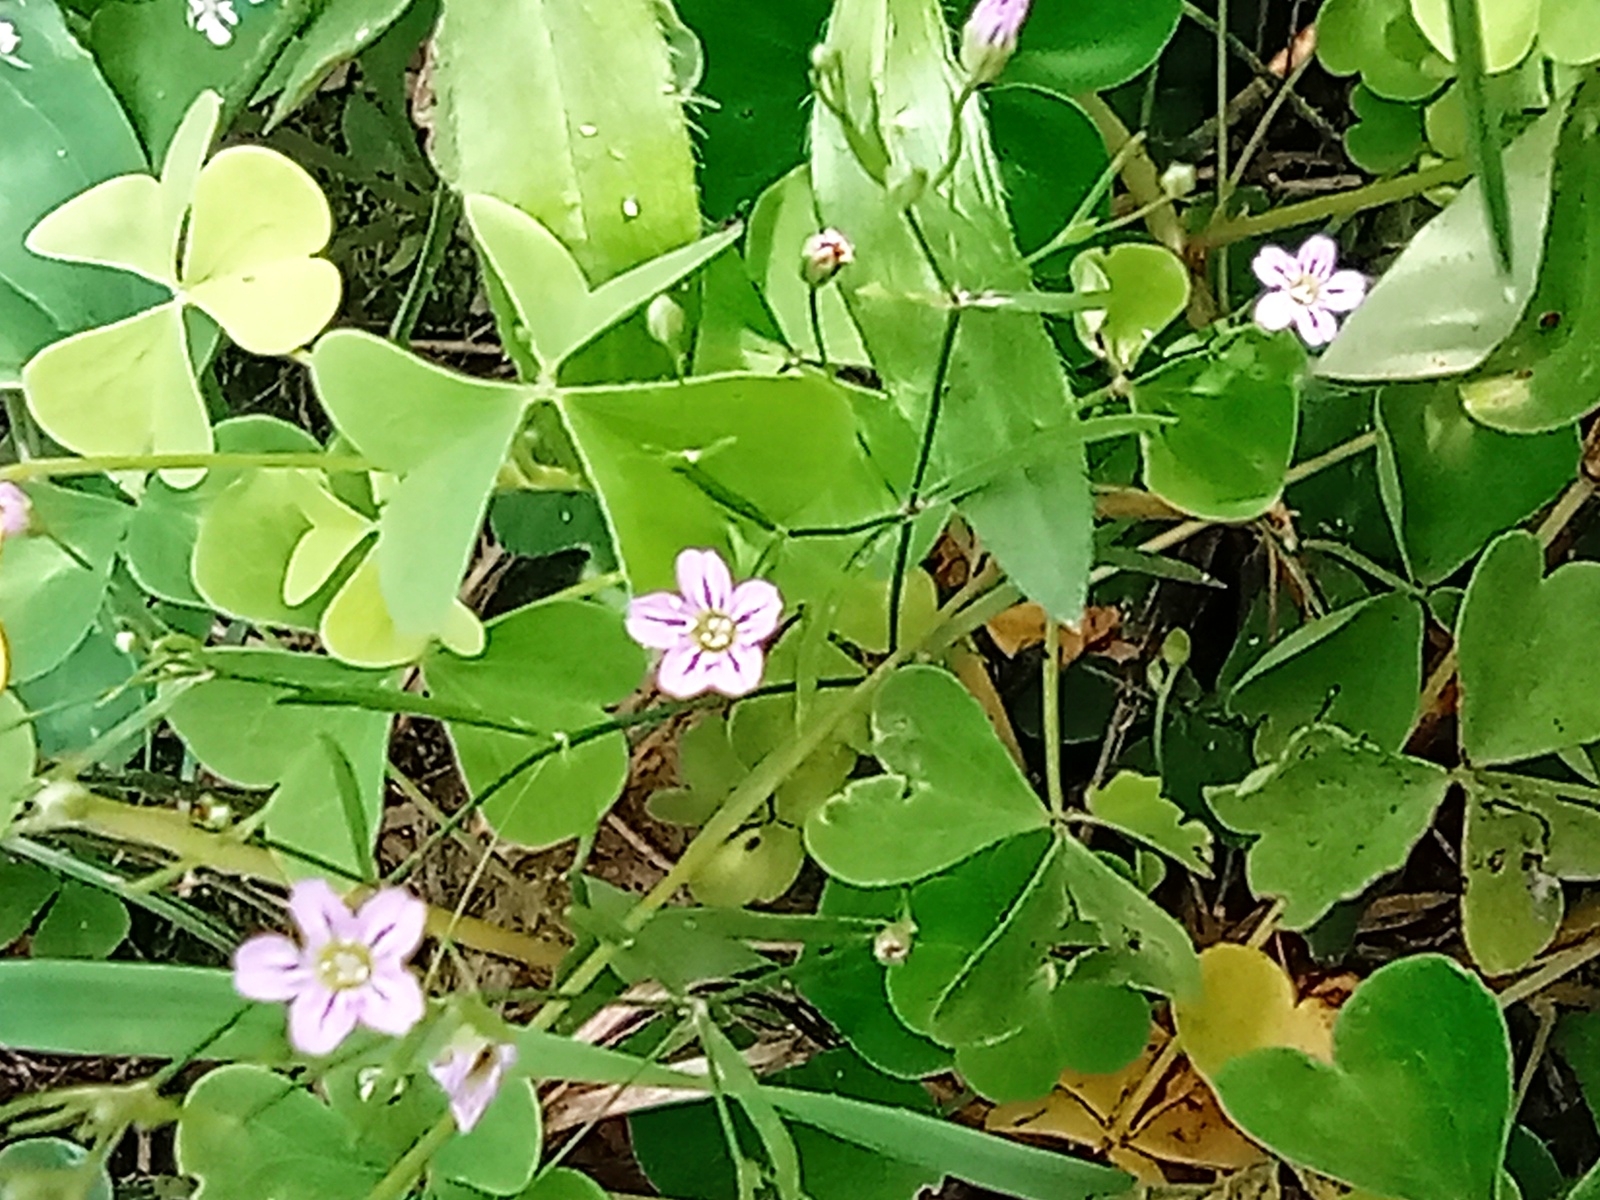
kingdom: Plantae
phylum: Tracheophyta
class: Magnoliopsida
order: Caryophyllales
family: Caryophyllaceae
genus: Psammophiliella
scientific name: Psammophiliella muralis
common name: Cushion baby's-breath
